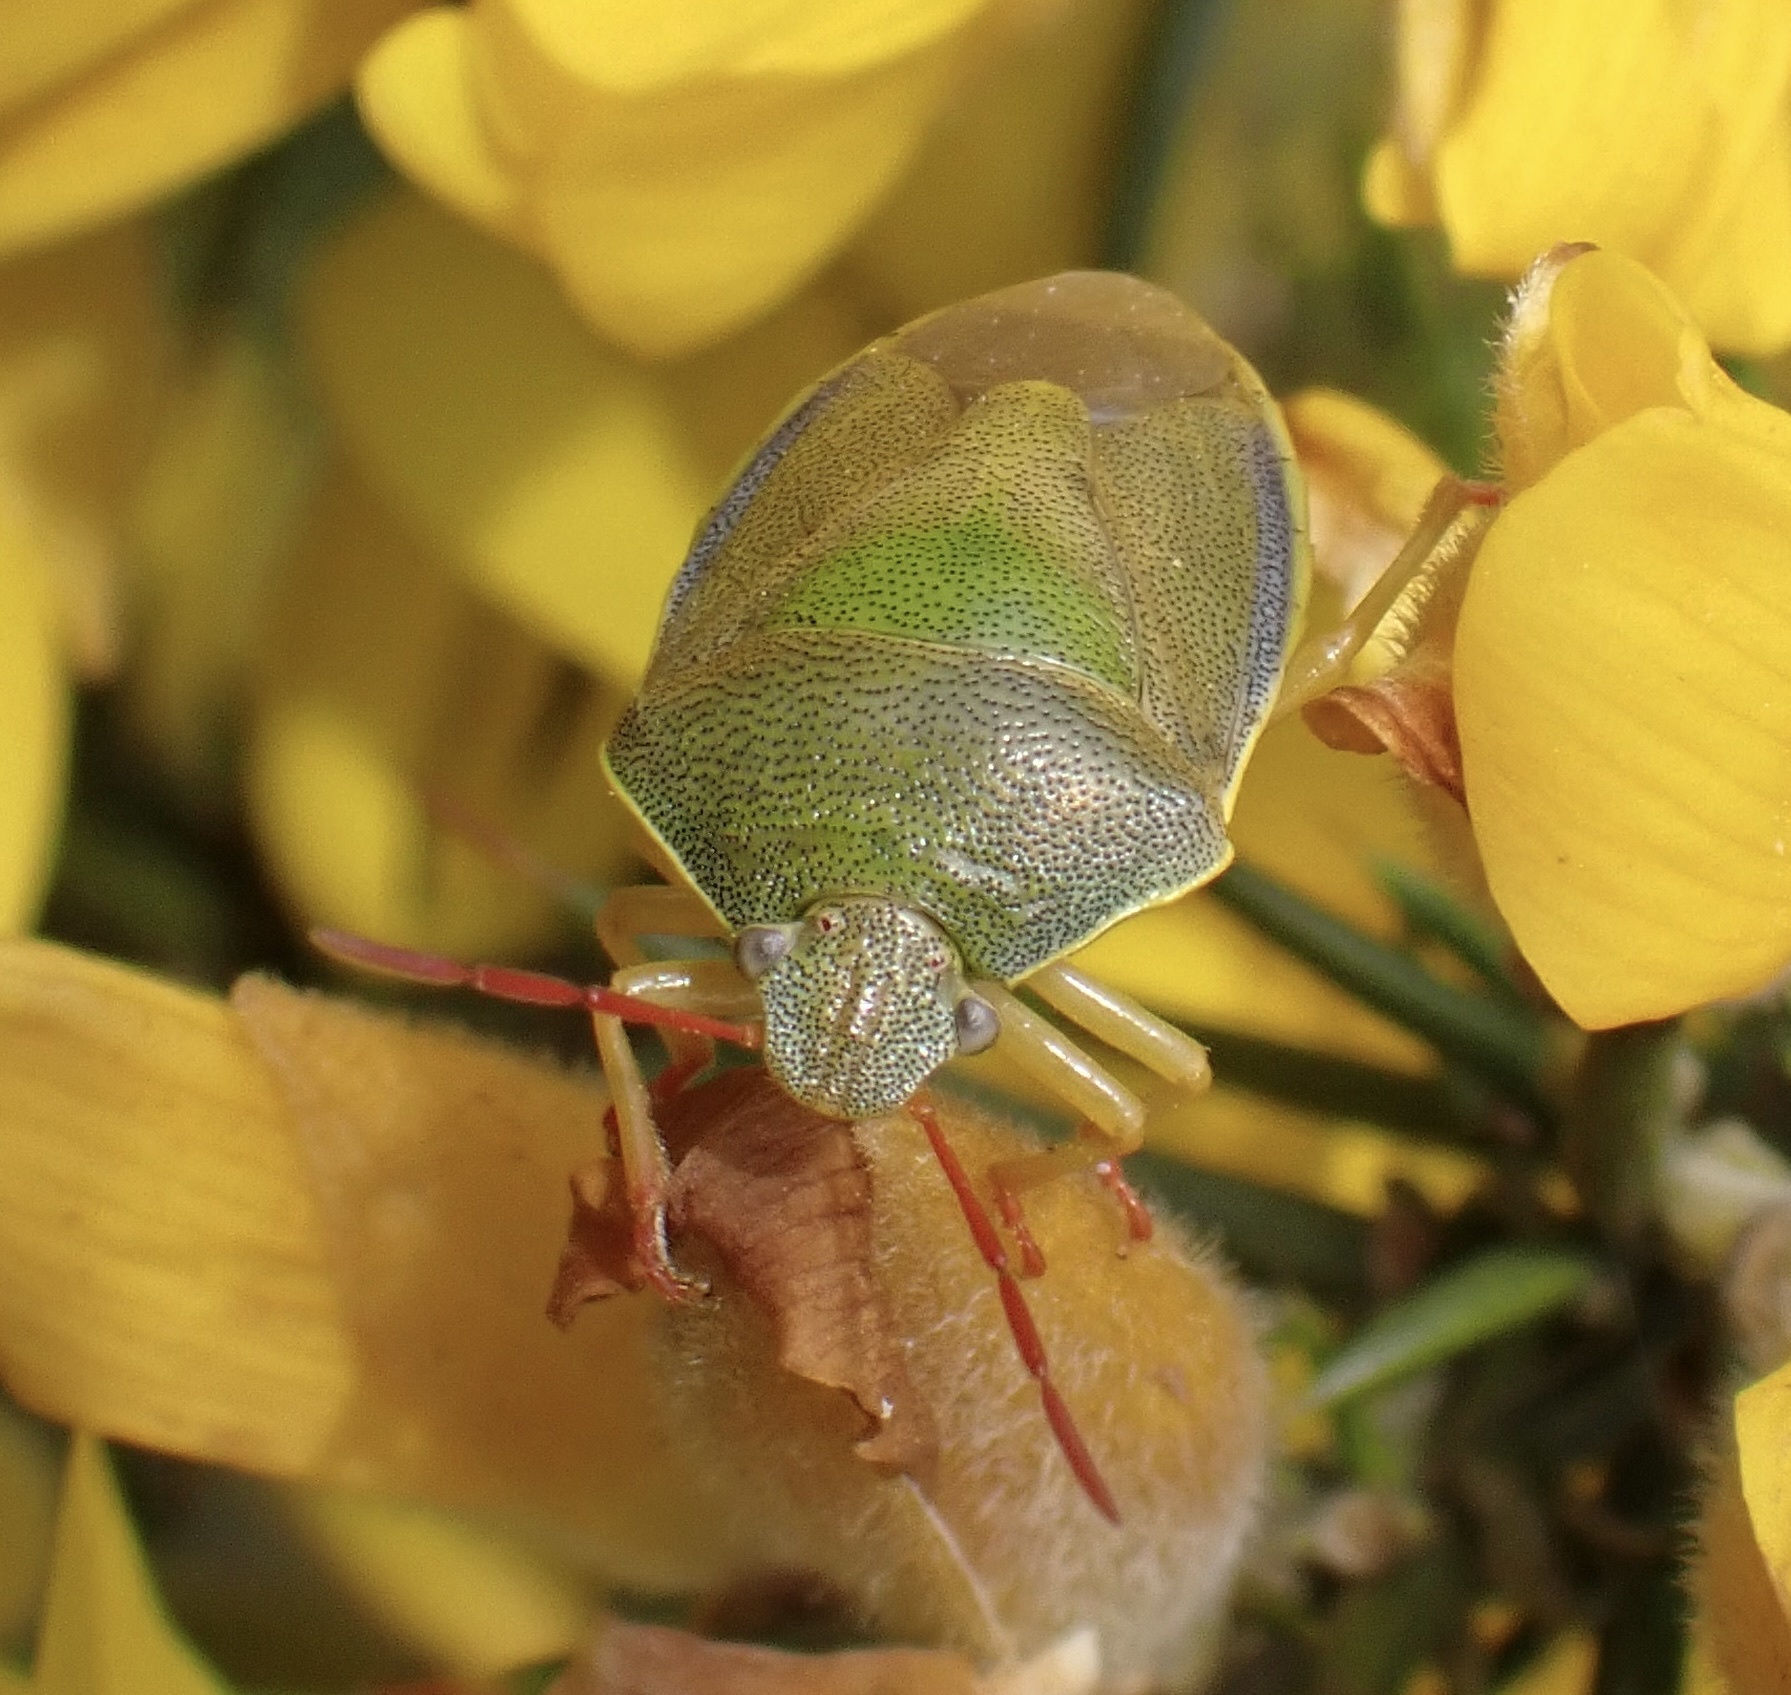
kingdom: Animalia
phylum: Arthropoda
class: Insecta
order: Hemiptera
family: Pentatomidae
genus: Piezodorus
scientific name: Piezodorus lituratus
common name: Stink bug
